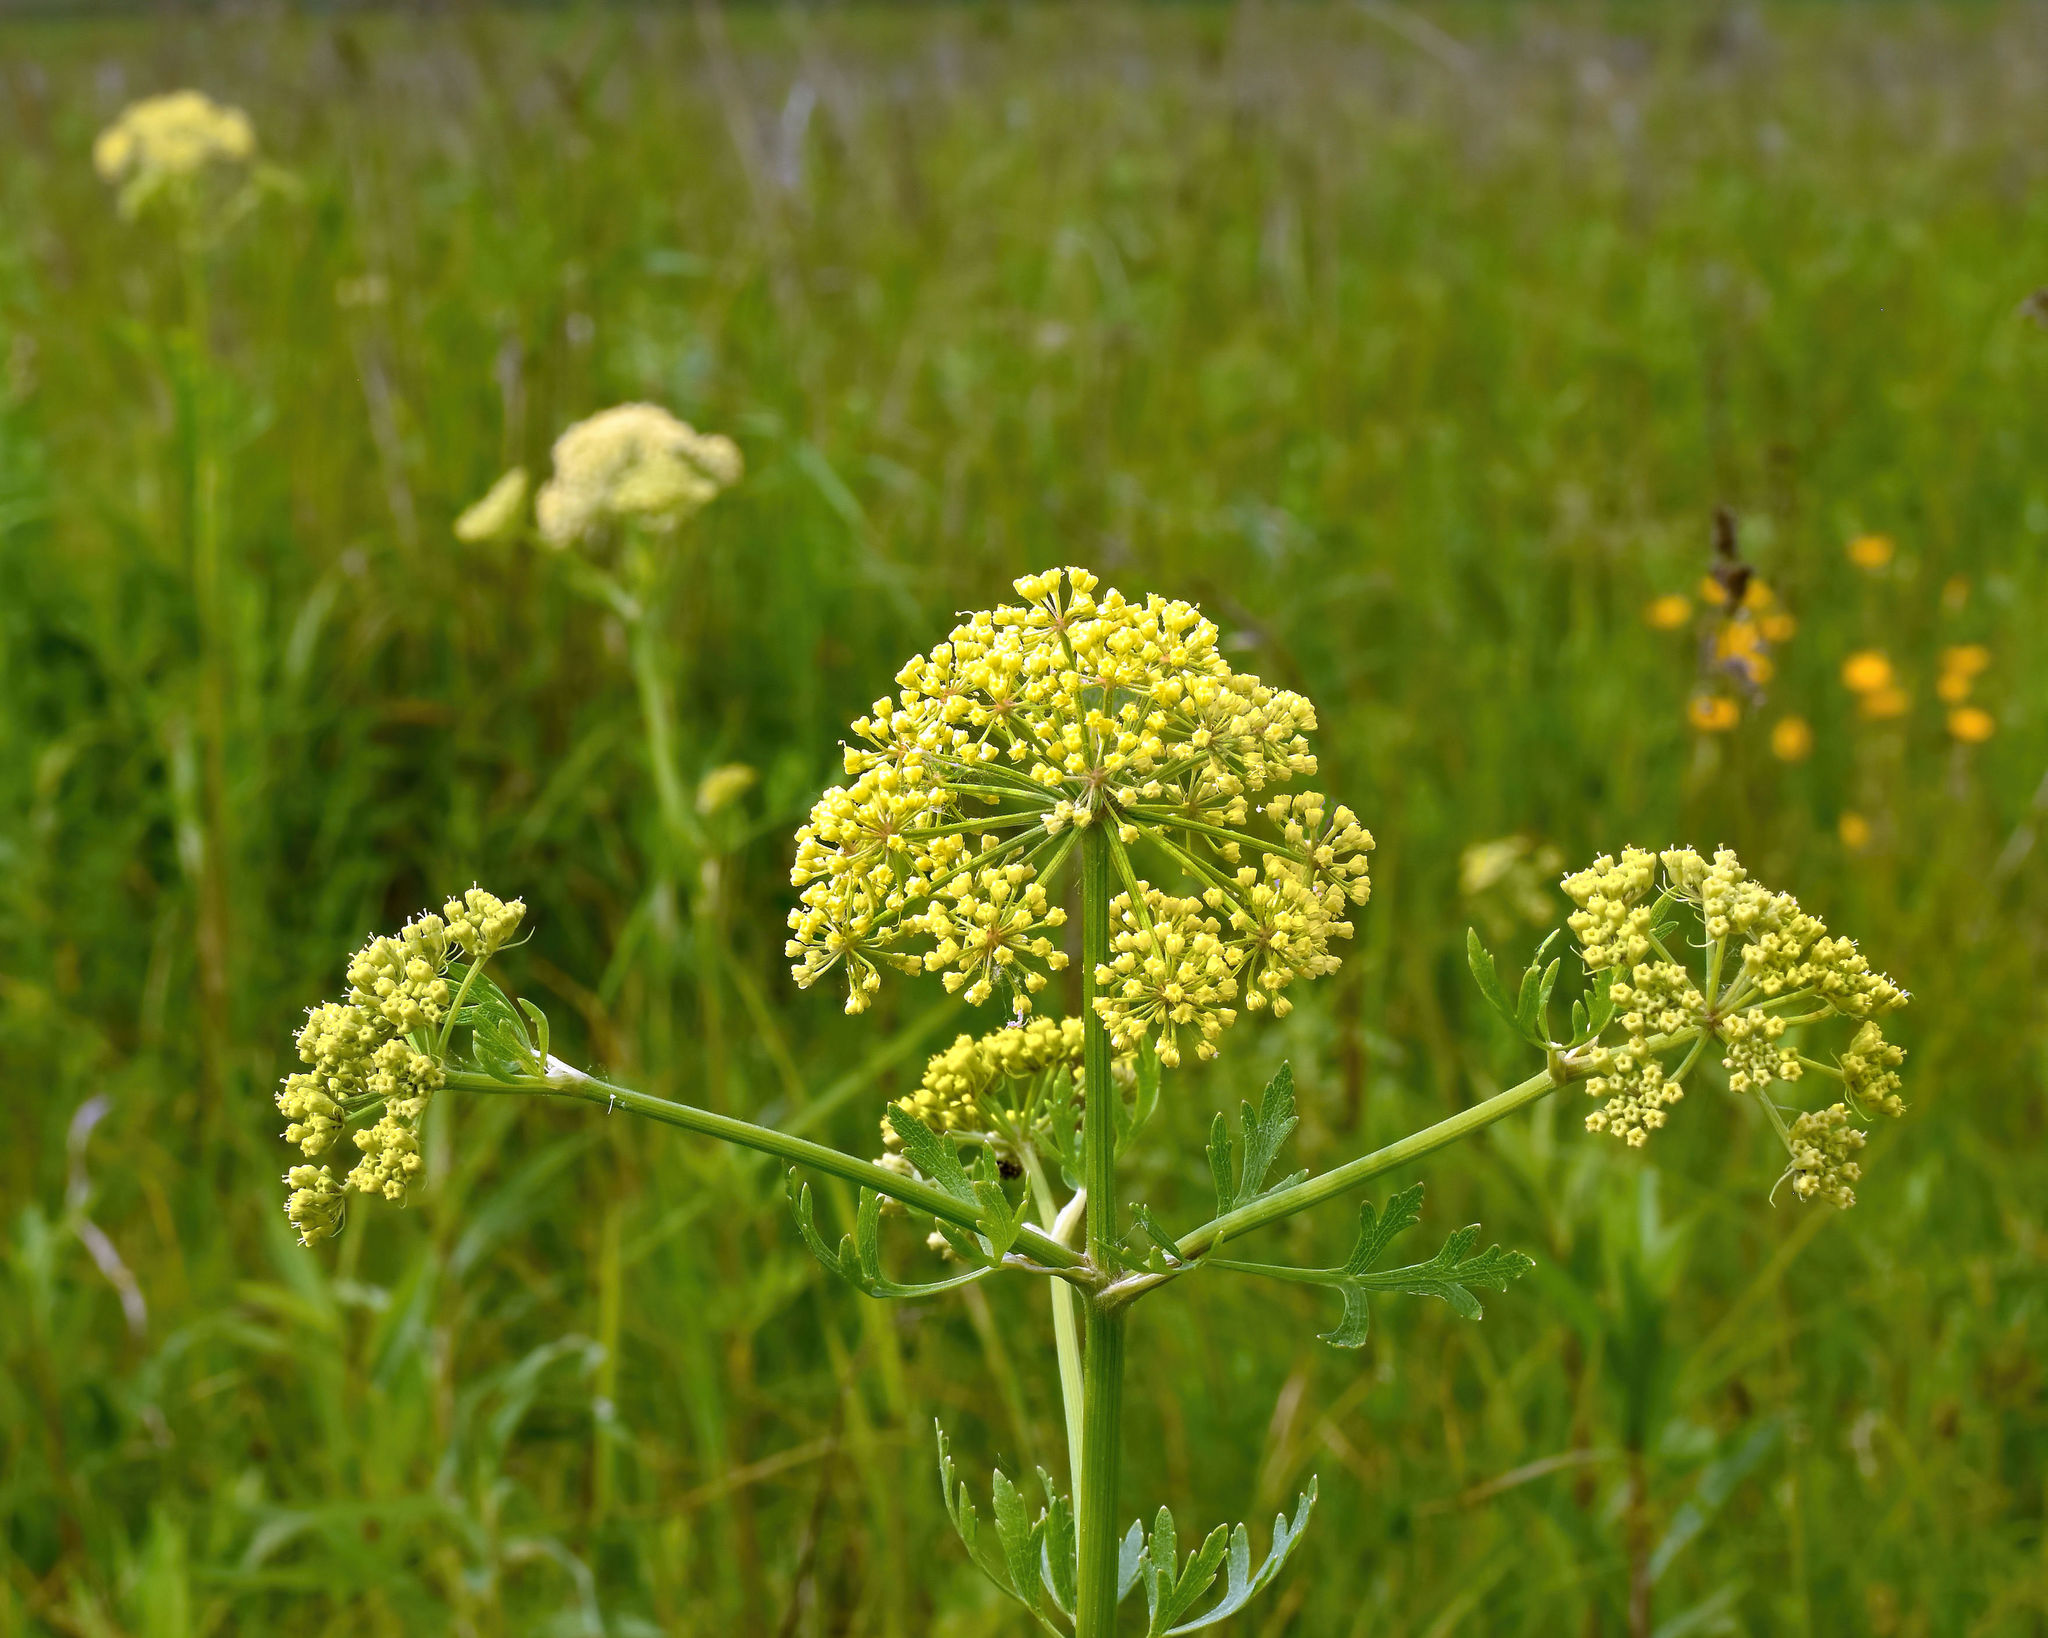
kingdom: Plantae
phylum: Tracheophyta
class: Magnoliopsida
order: Apiales
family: Apiaceae
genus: Polytaenia
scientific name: Polytaenia nuttallii
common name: Prairie-parsley
